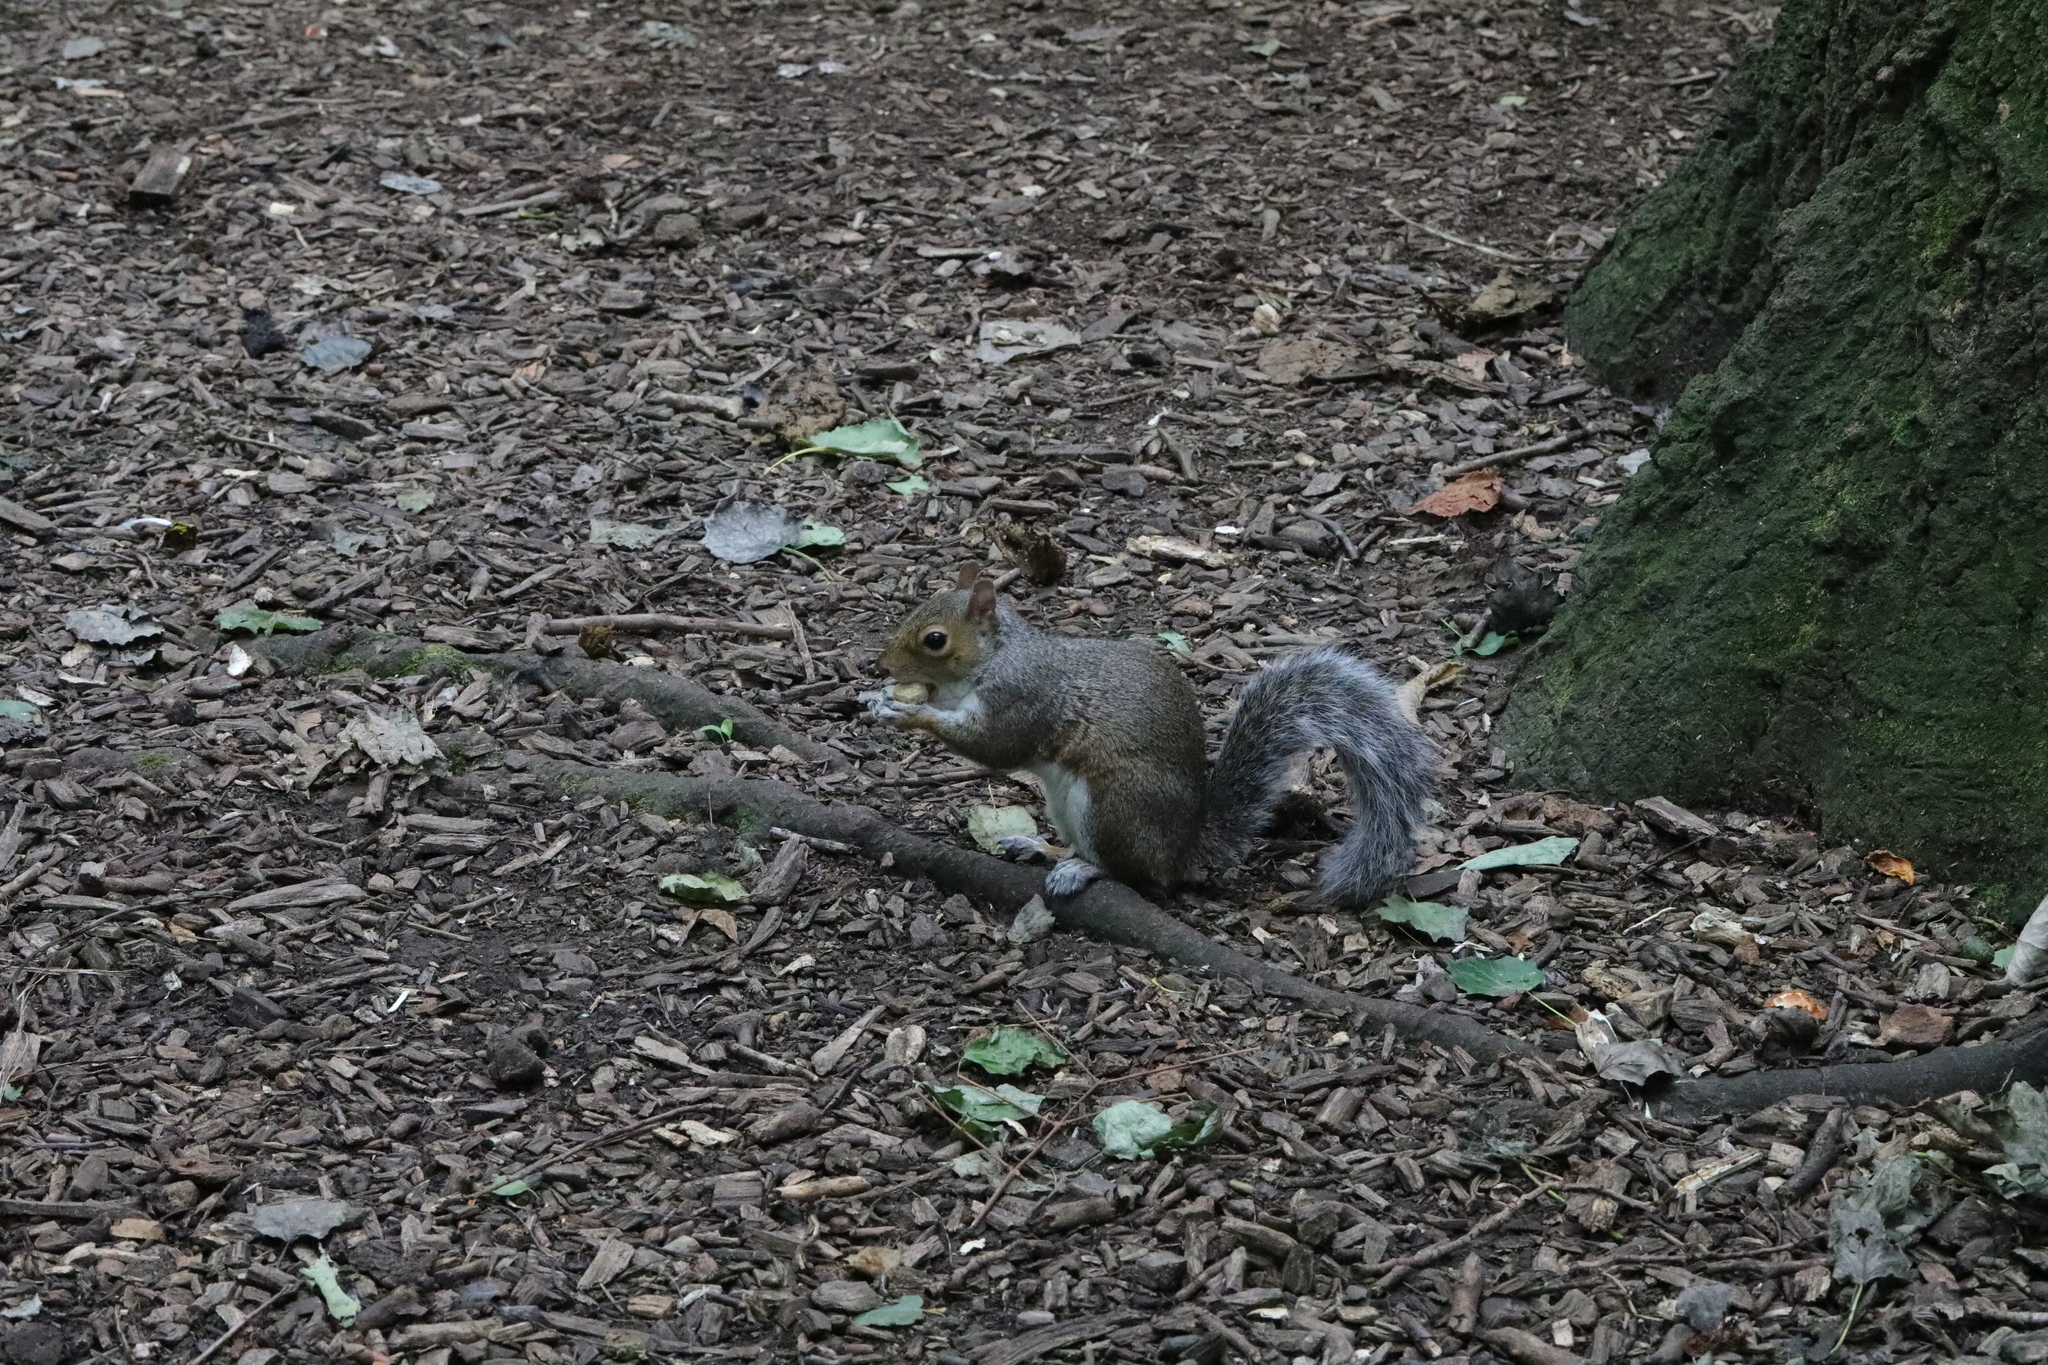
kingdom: Animalia
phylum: Chordata
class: Mammalia
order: Rodentia
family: Sciuridae
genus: Sciurus
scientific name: Sciurus carolinensis
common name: Eastern gray squirrel
